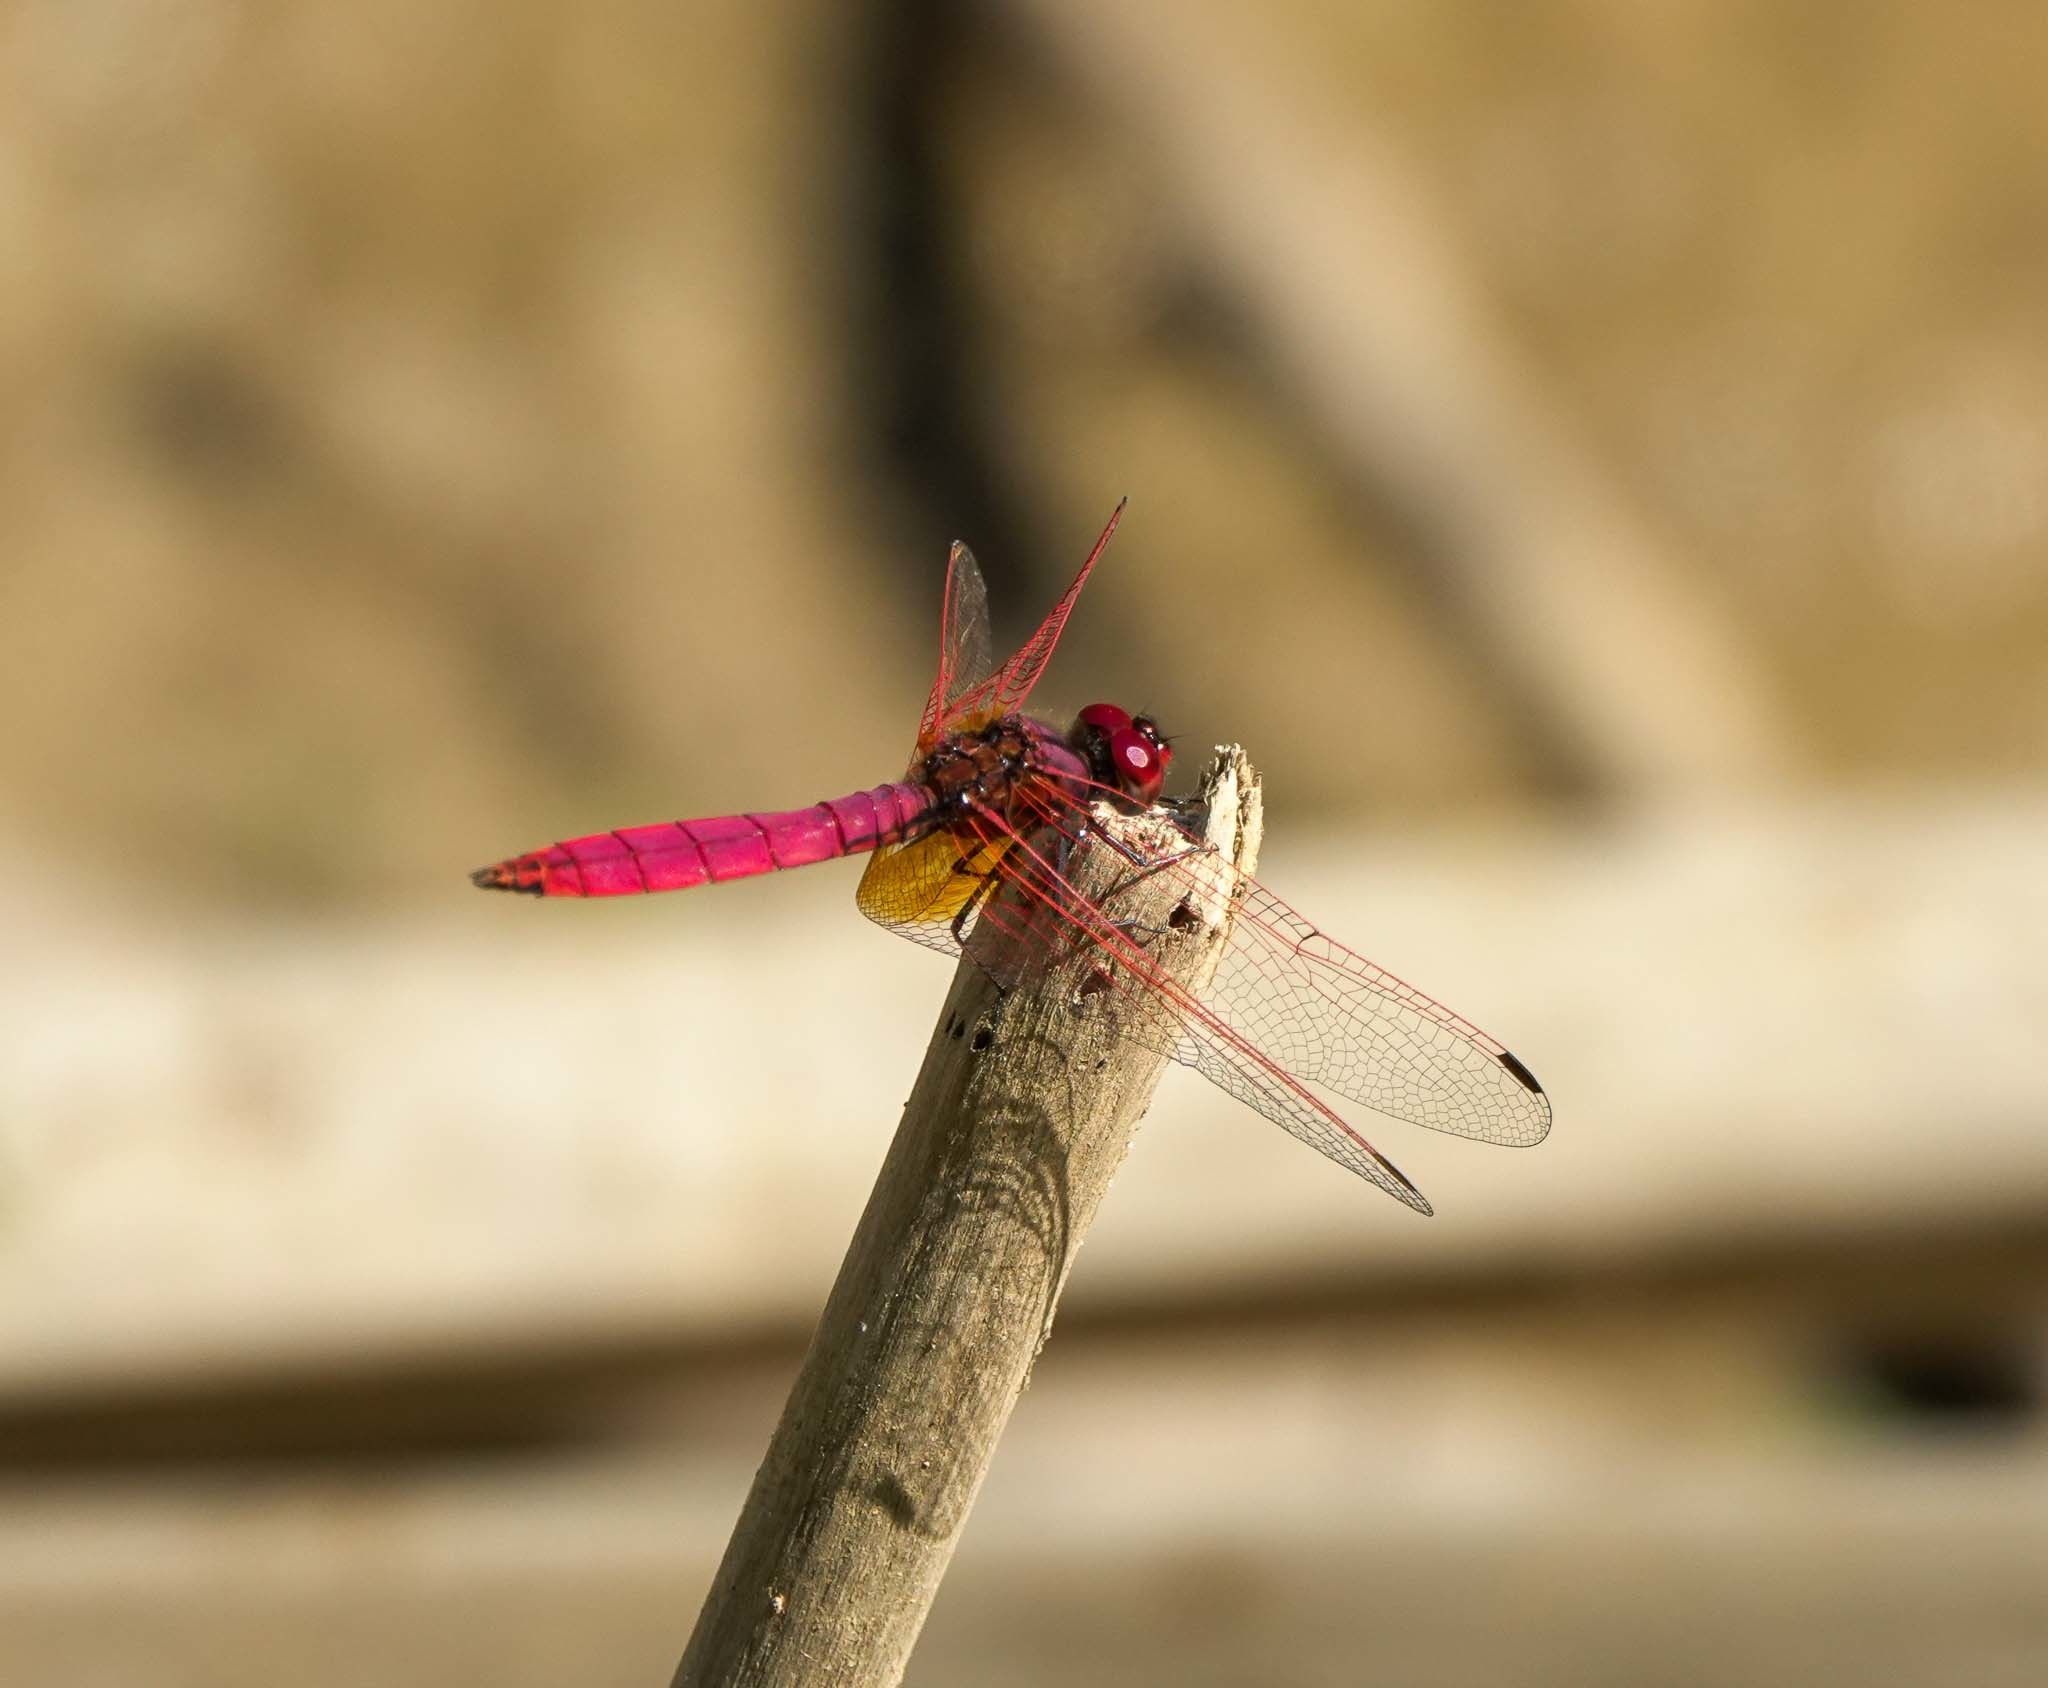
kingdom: Animalia
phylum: Arthropoda
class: Insecta
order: Odonata
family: Libellulidae
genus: Trithemis
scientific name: Trithemis aurora
